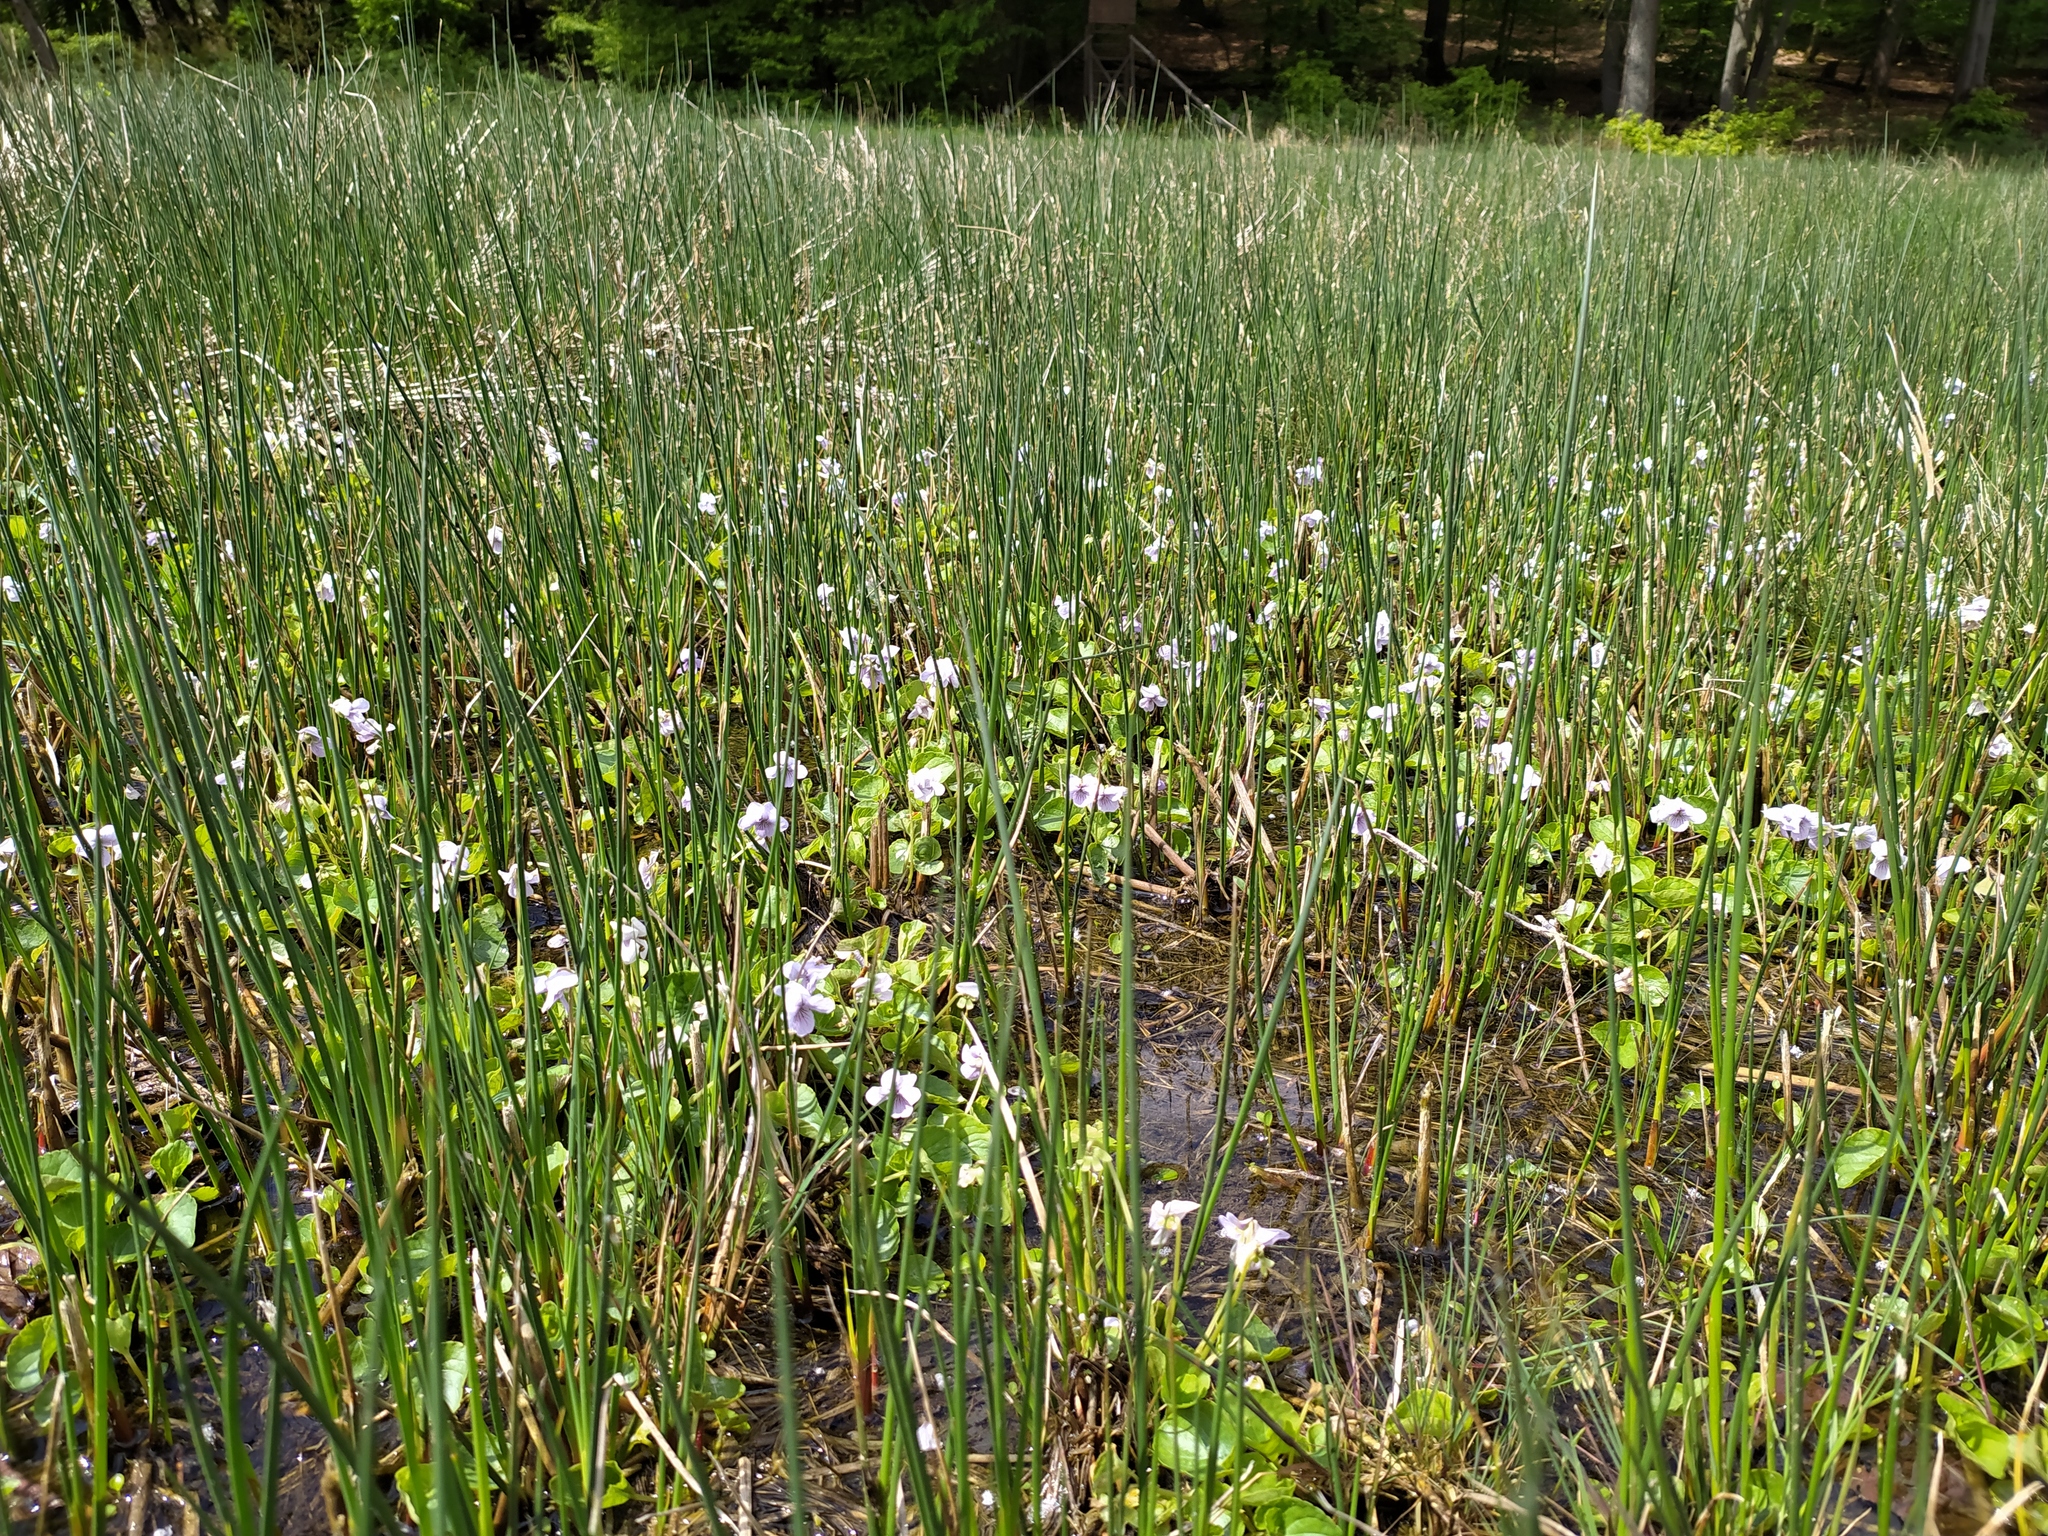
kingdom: Plantae
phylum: Tracheophyta
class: Magnoliopsida
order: Malpighiales
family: Violaceae
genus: Viola
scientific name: Viola palustris
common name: Marsh violet
